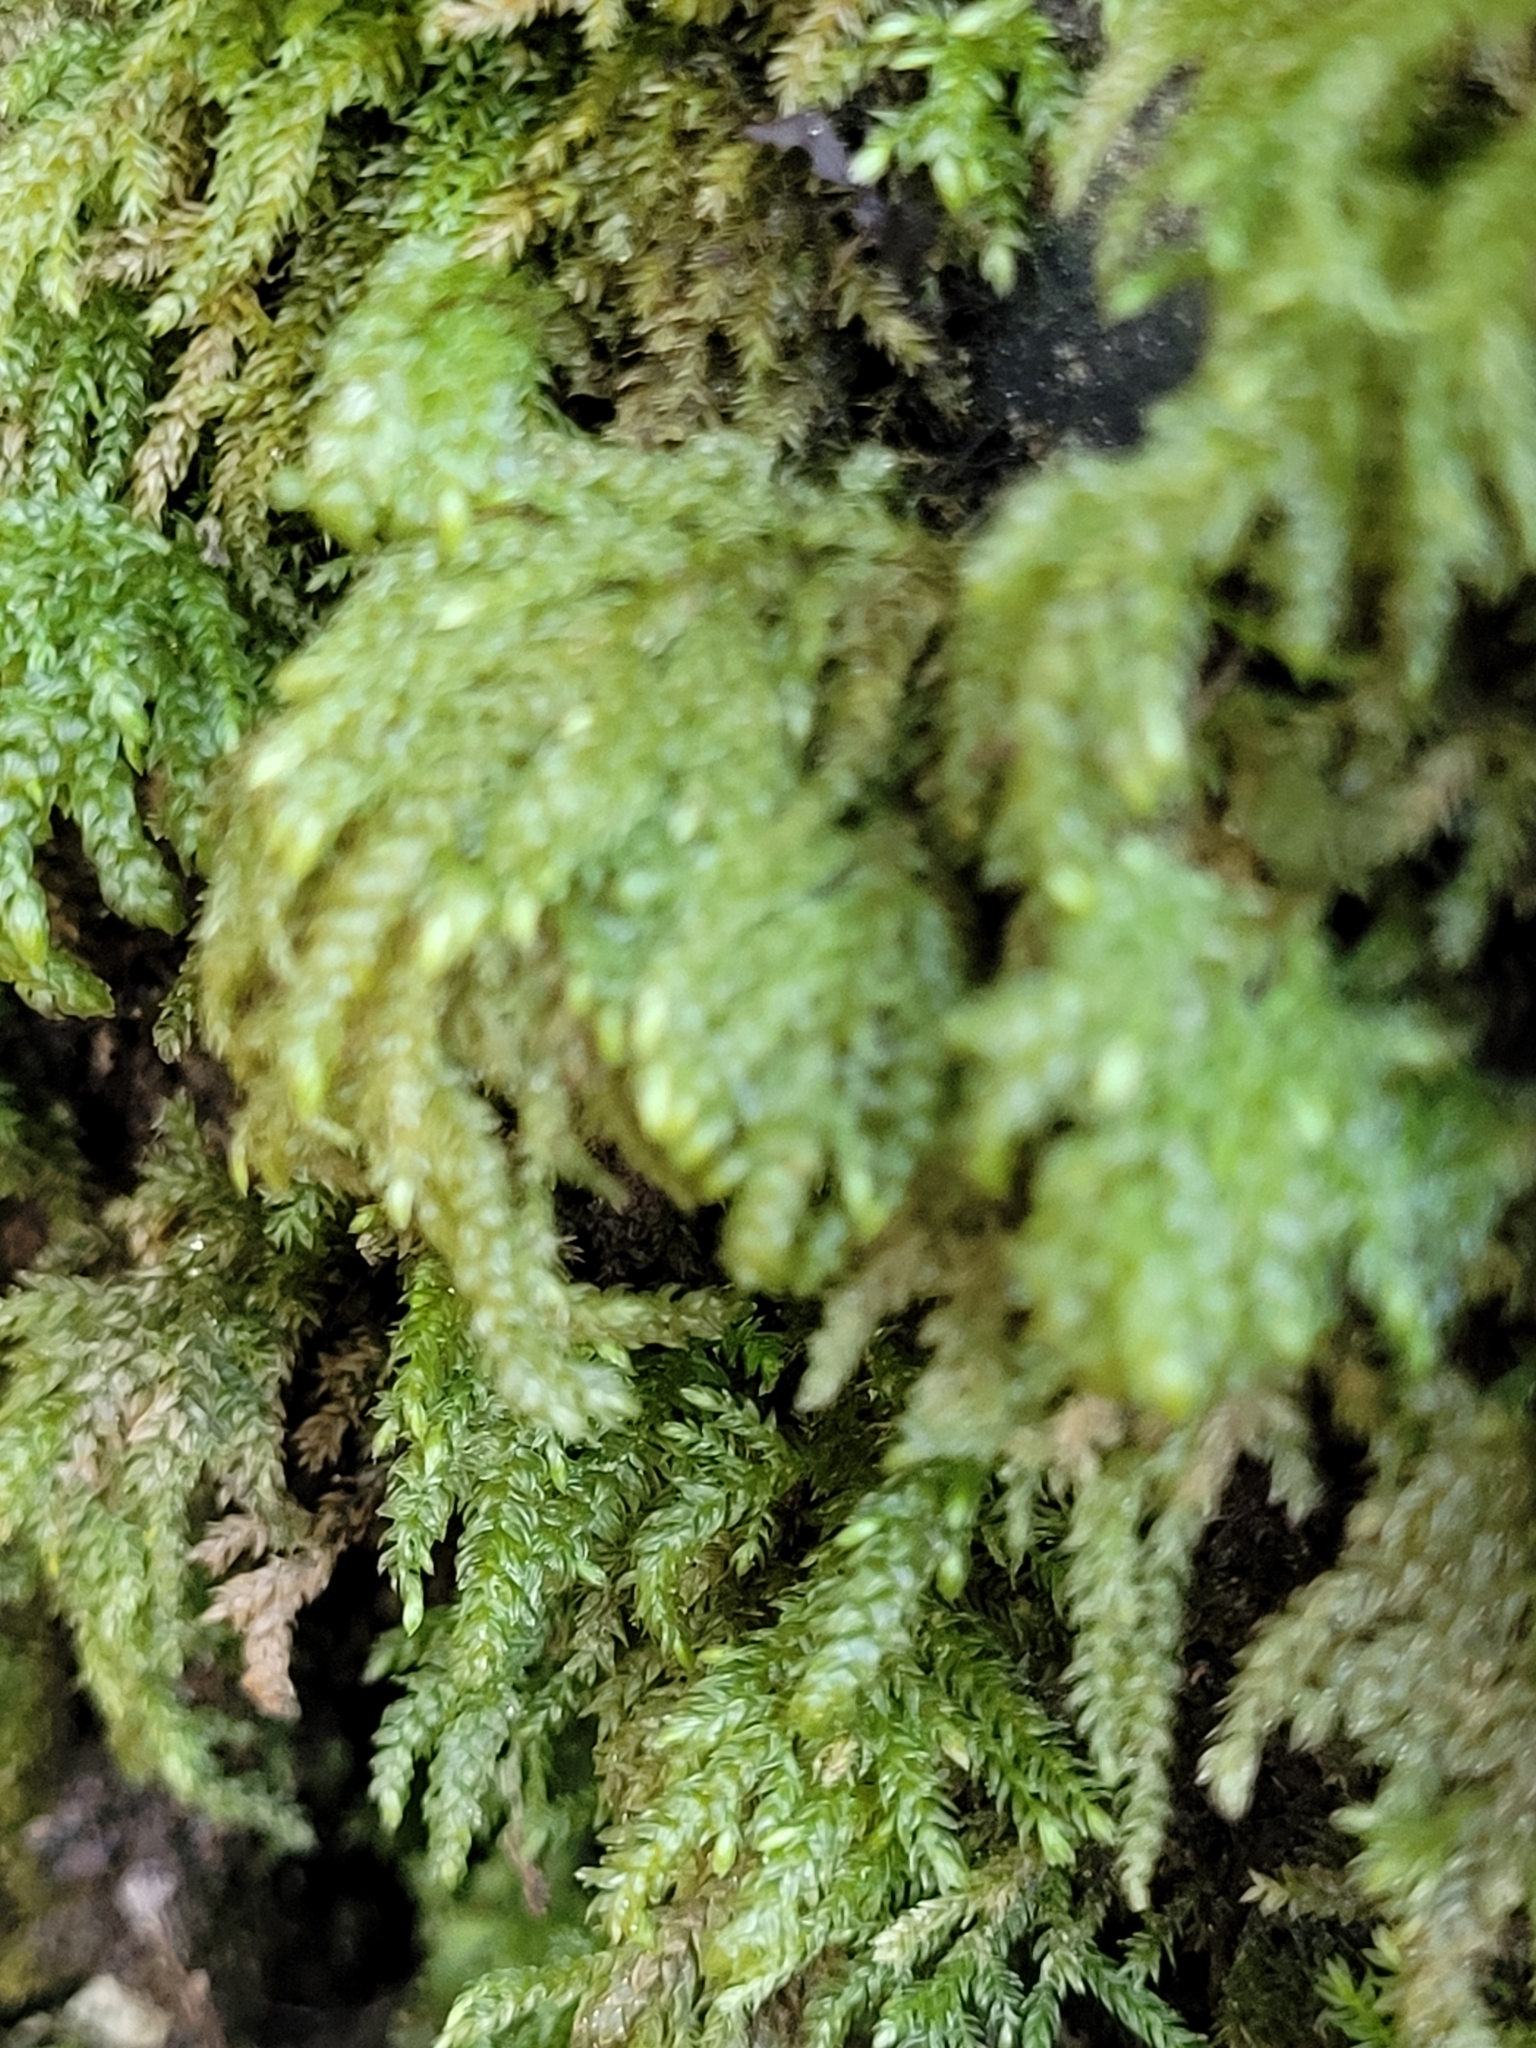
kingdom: Plantae
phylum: Bryophyta
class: Bryopsida
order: Hypnales
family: Neckeraceae
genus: Thamnobryum
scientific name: Thamnobryum alopecurum
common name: Fox-tail feather-moss
